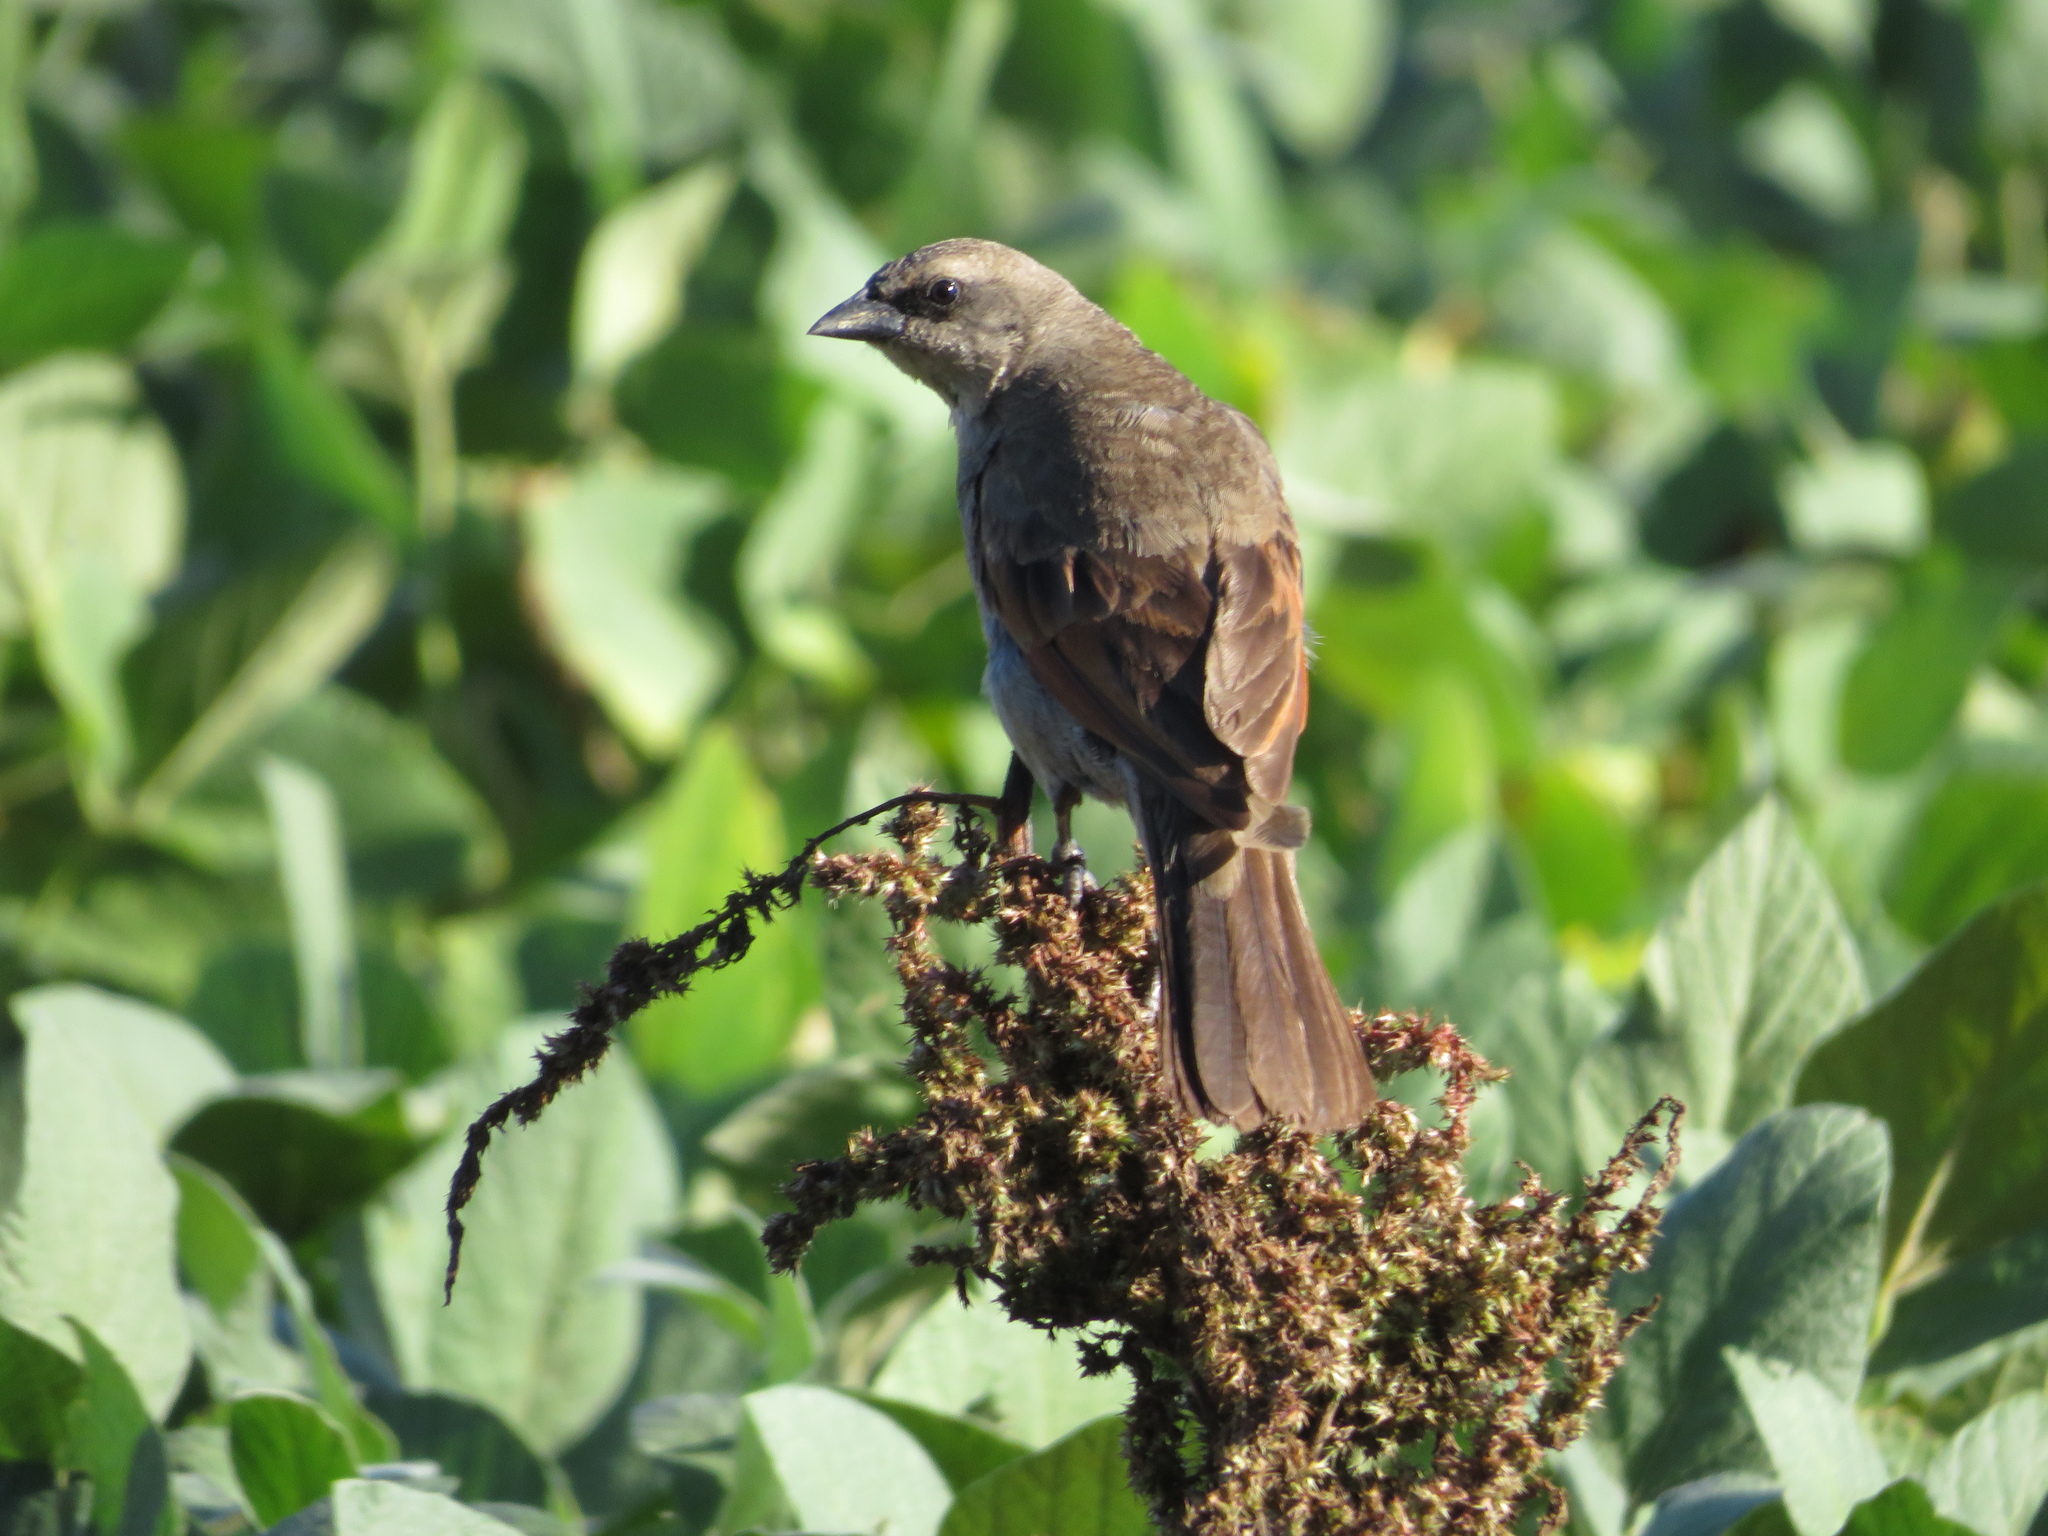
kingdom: Animalia
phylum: Chordata
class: Aves
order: Passeriformes
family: Icteridae
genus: Agelaioides
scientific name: Agelaioides badius
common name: Baywing
